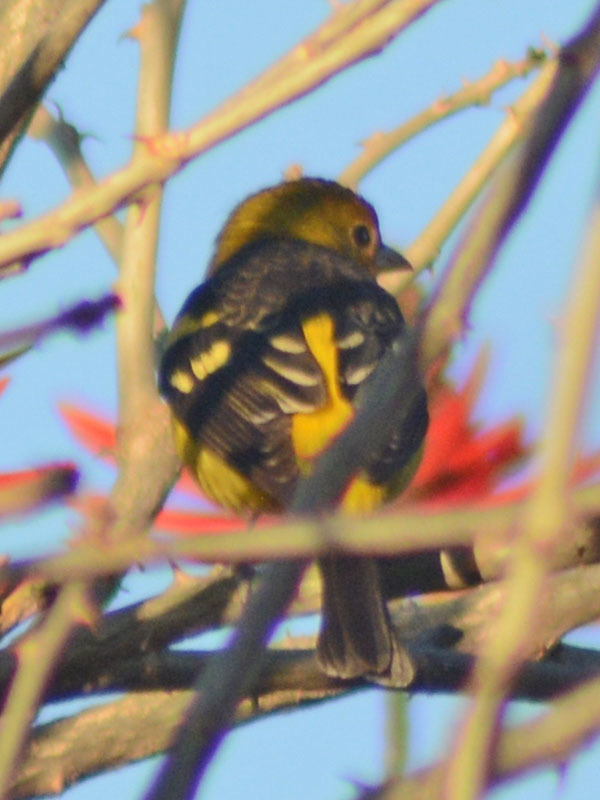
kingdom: Animalia
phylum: Chordata
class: Aves
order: Passeriformes
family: Cardinalidae
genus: Piranga
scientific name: Piranga ludoviciana
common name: Western tanager
